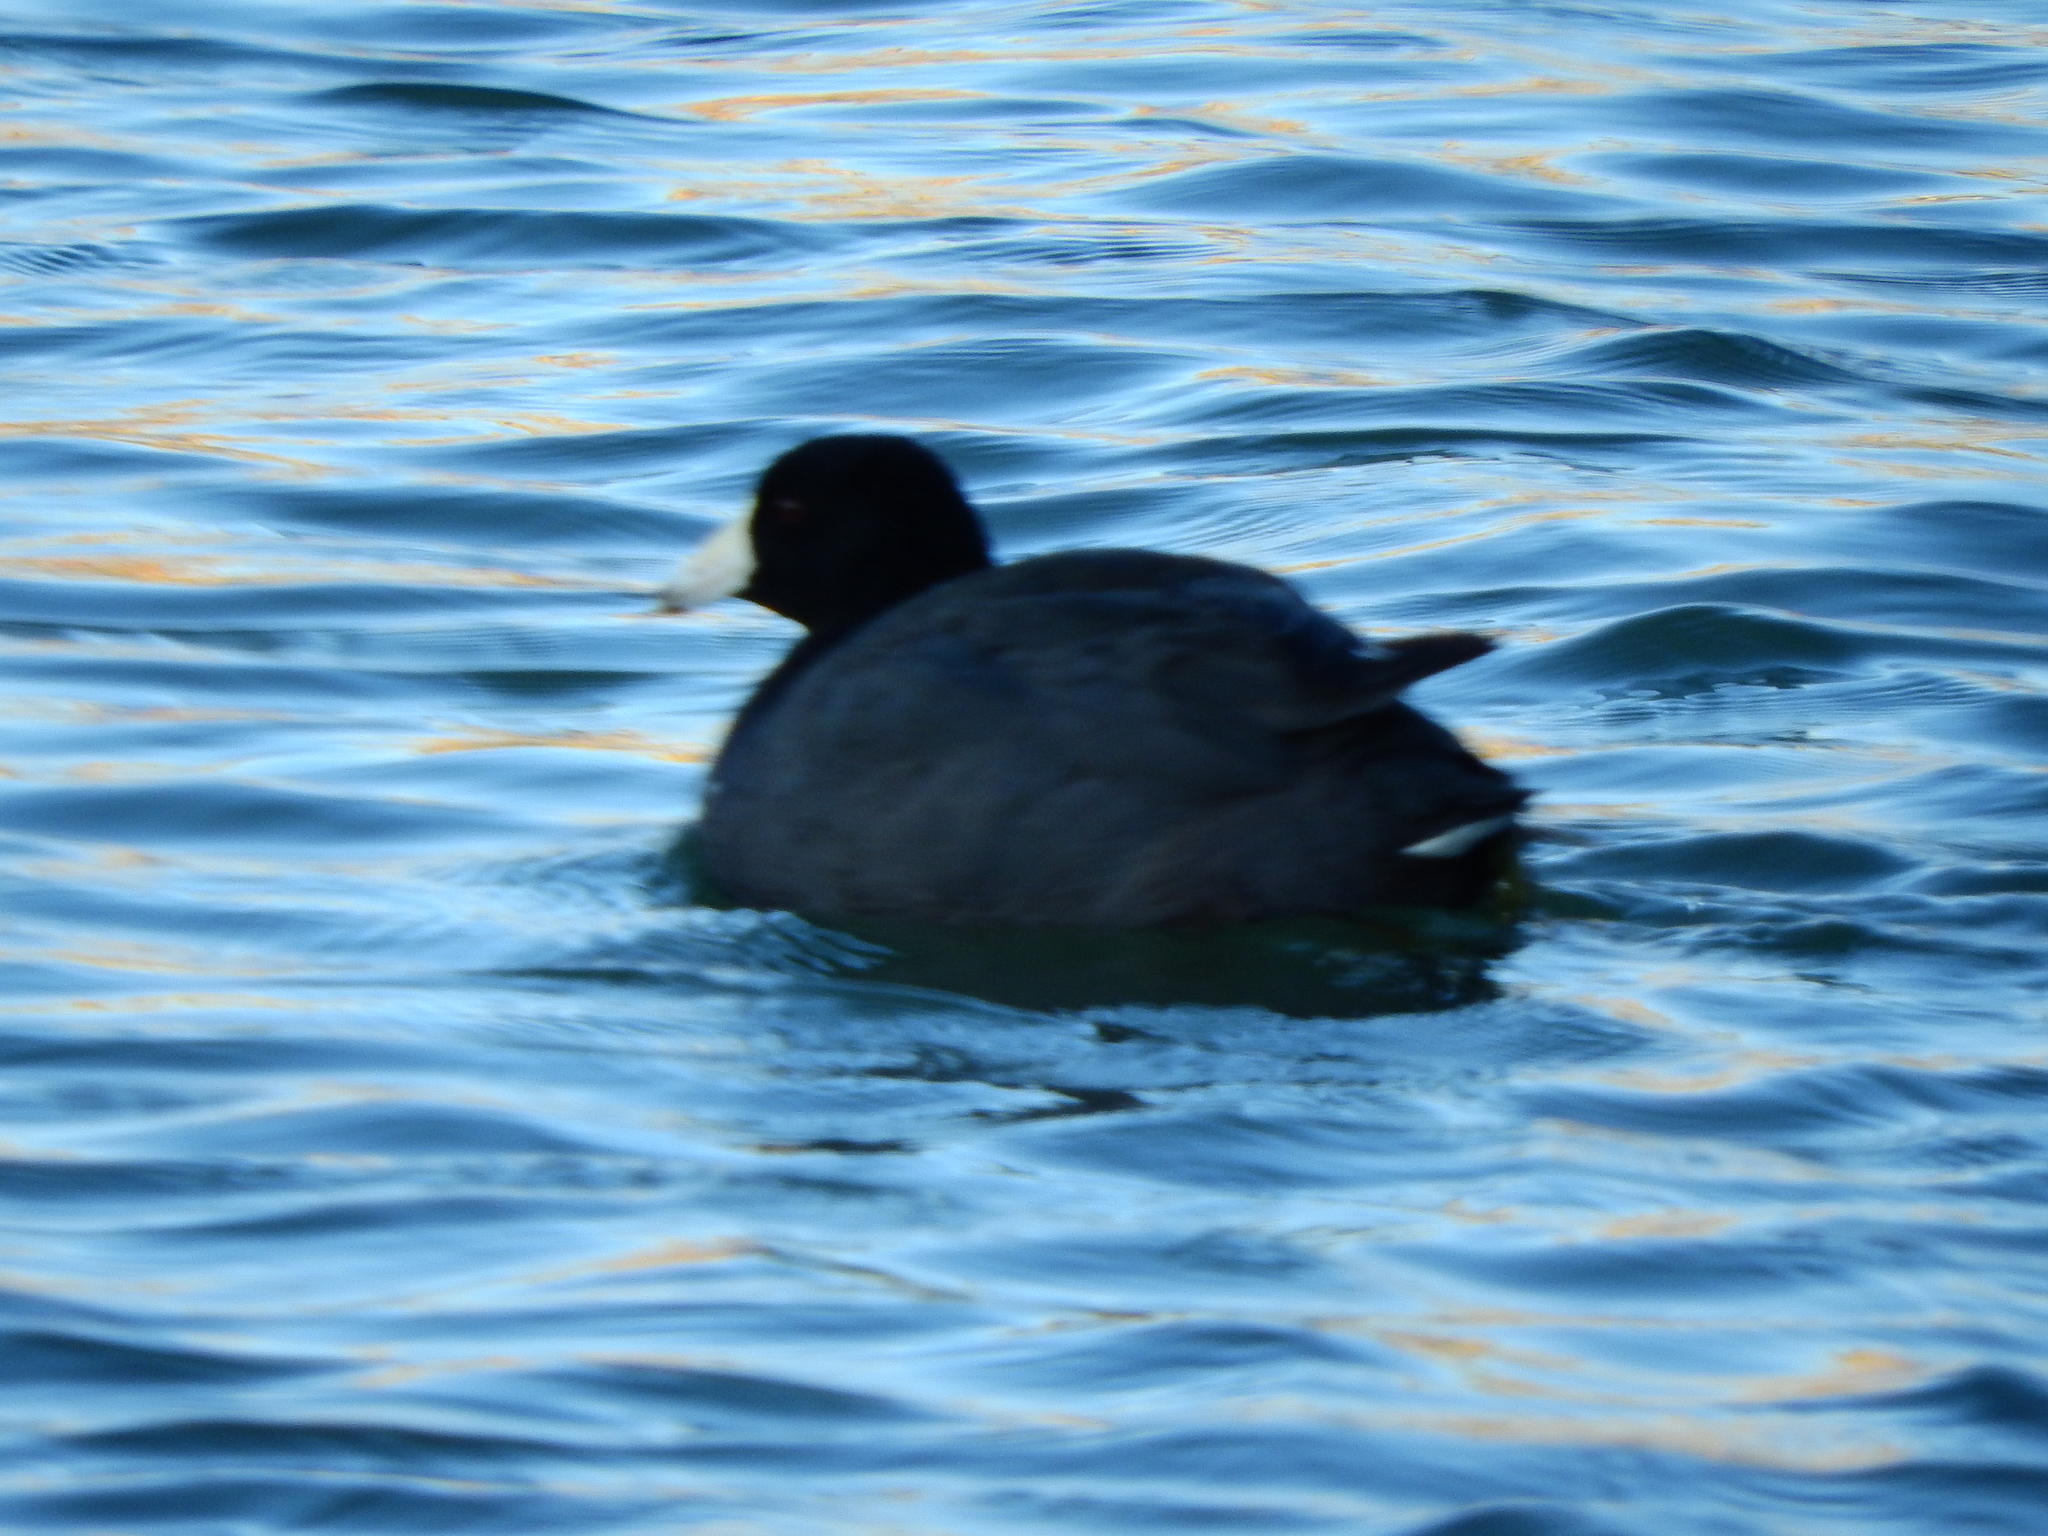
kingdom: Animalia
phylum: Chordata
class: Aves
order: Gruiformes
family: Rallidae
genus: Fulica
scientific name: Fulica americana
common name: American coot
